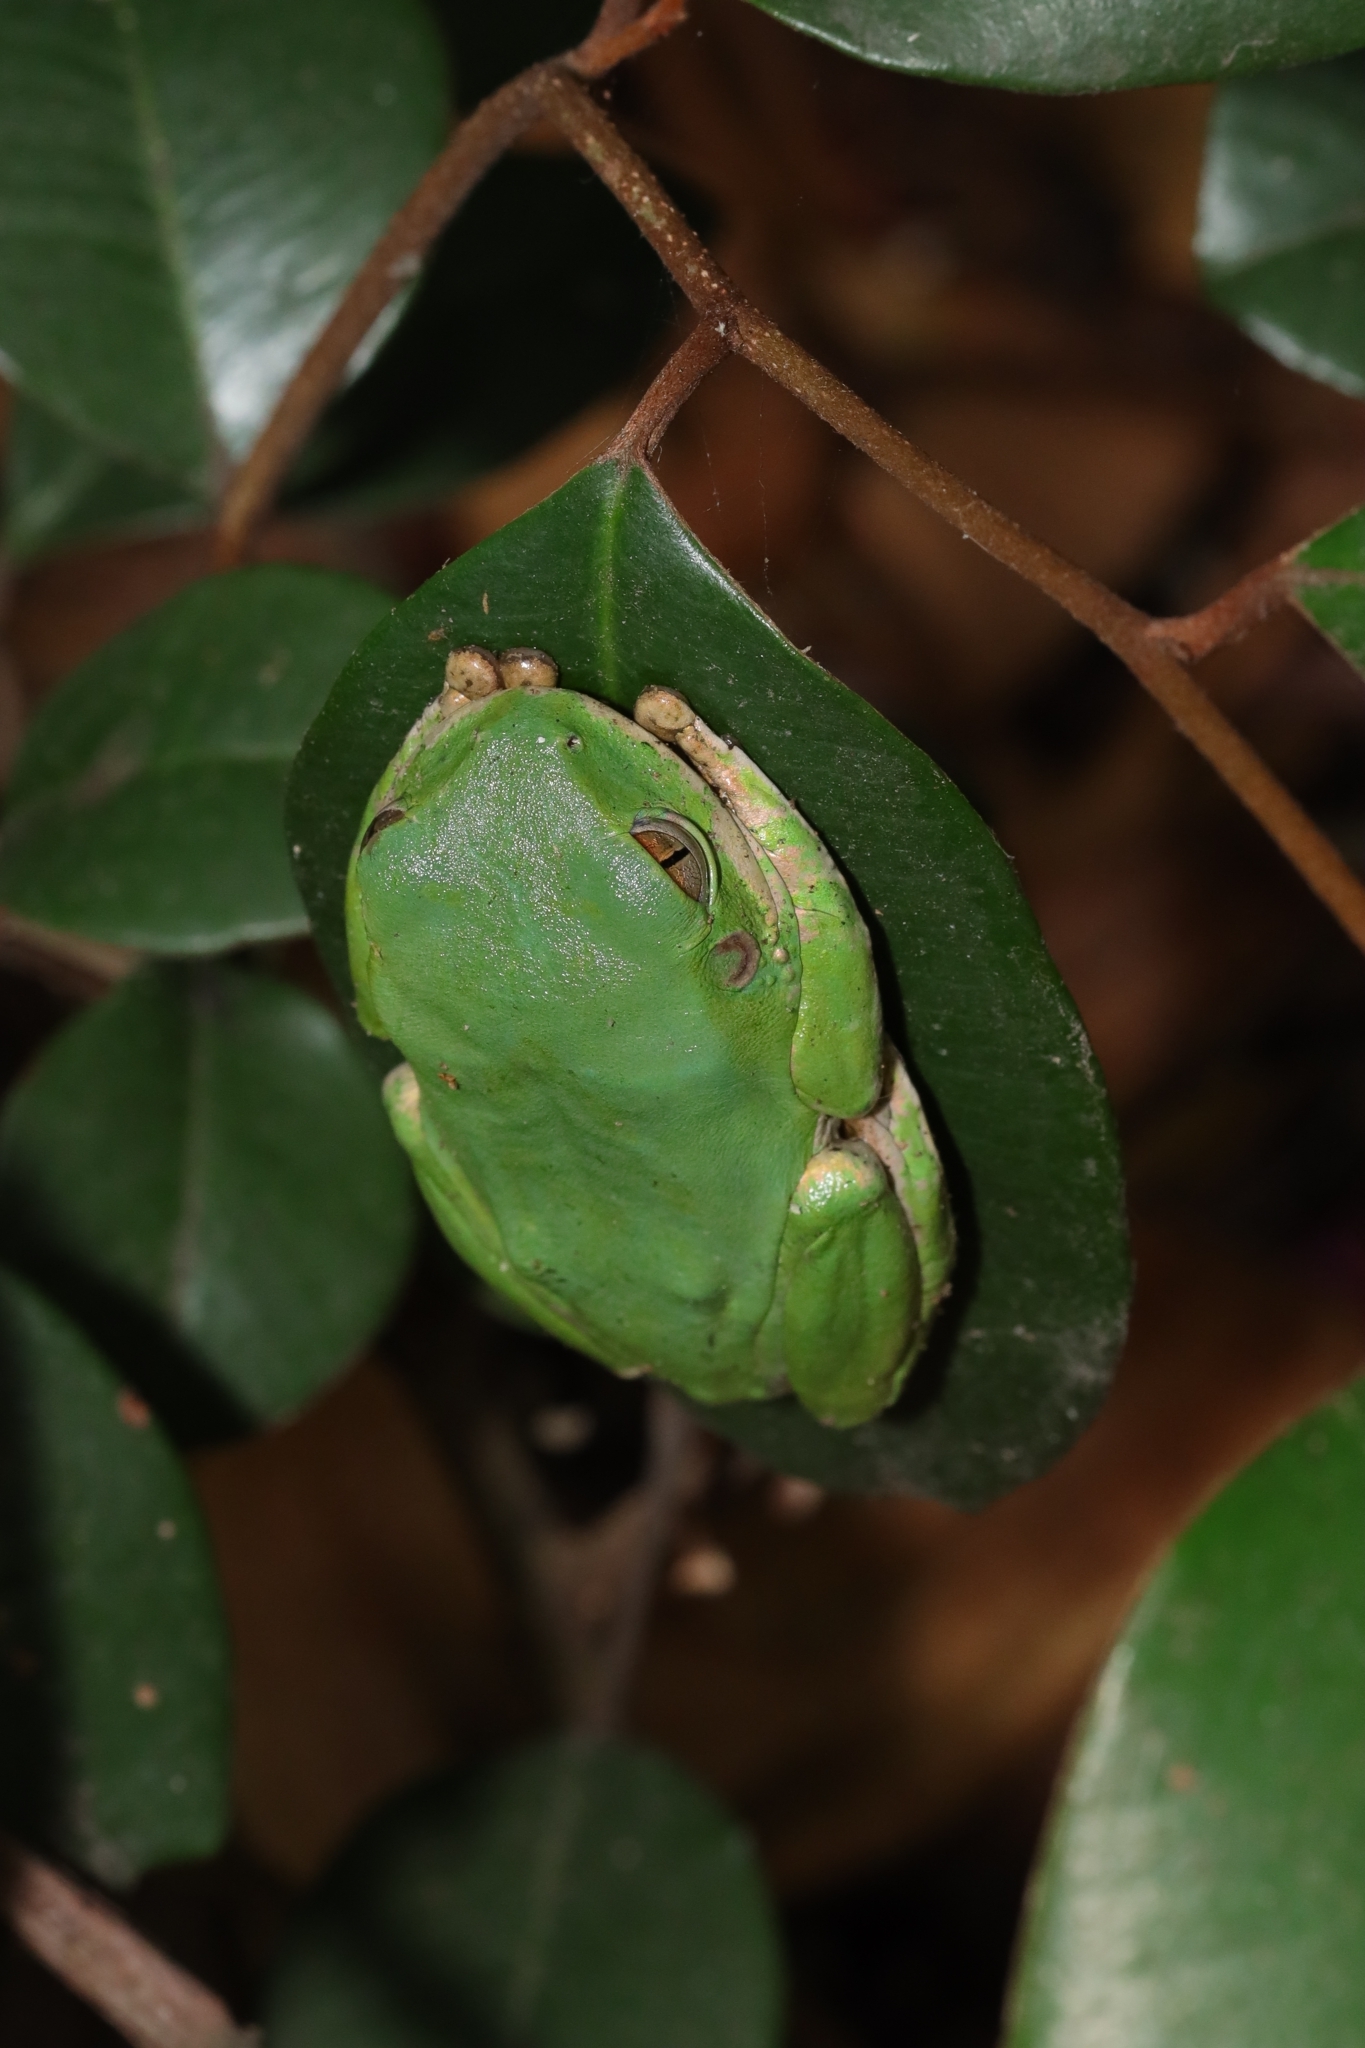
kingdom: Animalia
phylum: Chordata
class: Amphibia
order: Anura
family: Arthroleptidae
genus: Leptopelis
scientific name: Leptopelis natalensis
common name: Natal tree frog
